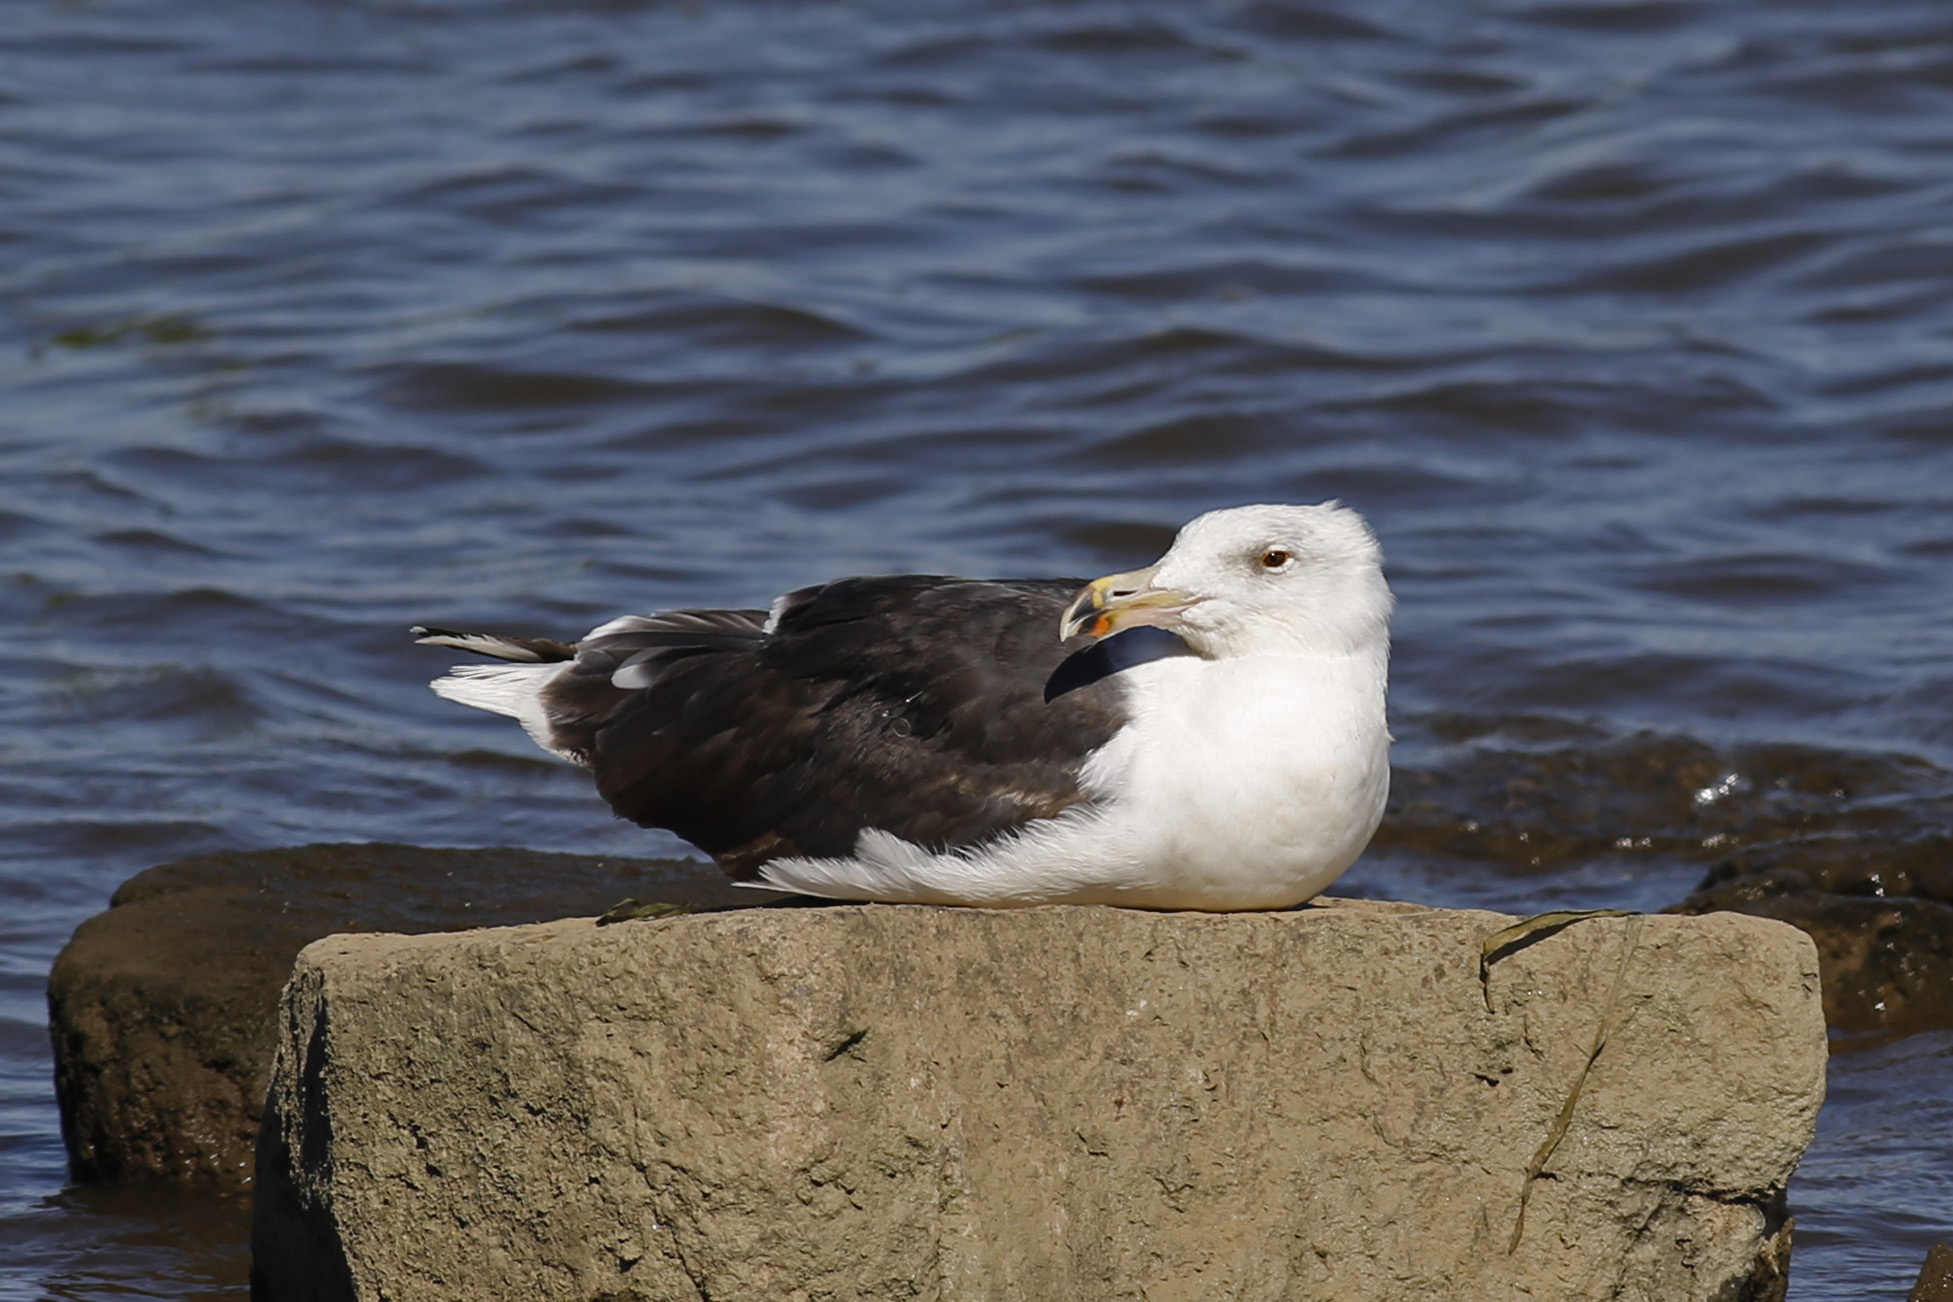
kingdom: Animalia
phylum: Chordata
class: Aves
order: Charadriiformes
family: Laridae
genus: Larus
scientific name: Larus marinus
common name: Great black-backed gull
